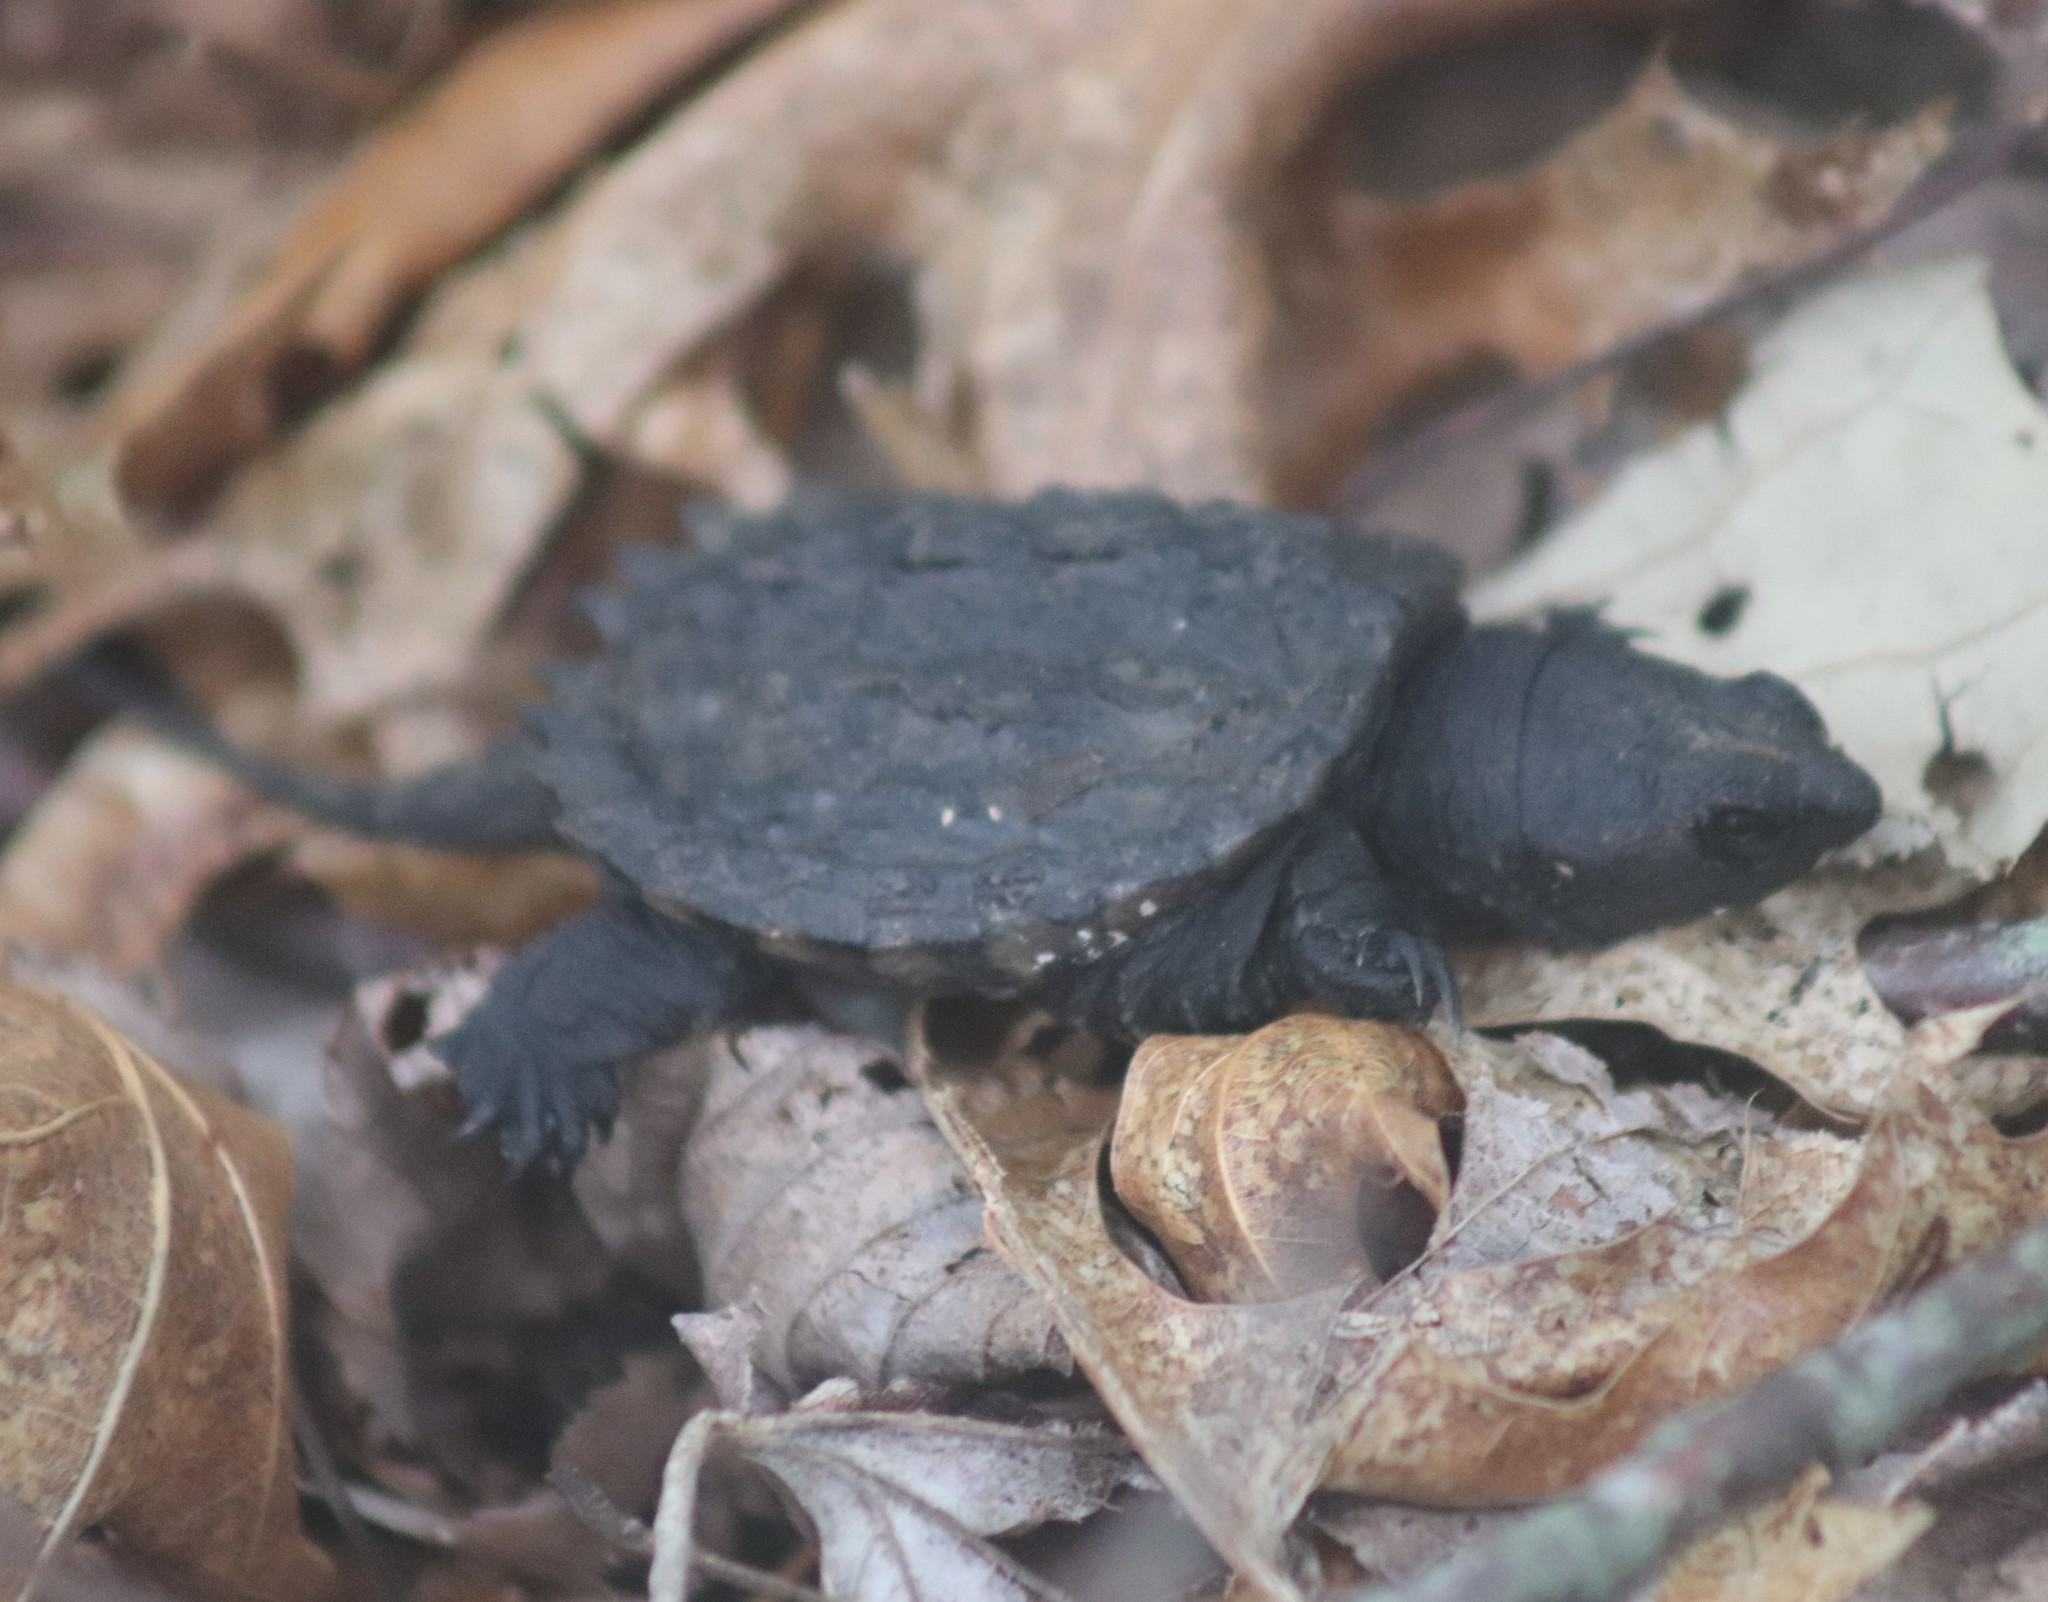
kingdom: Animalia
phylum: Chordata
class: Testudines
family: Chelydridae
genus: Chelydra
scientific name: Chelydra serpentina
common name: Common snapping turtle
